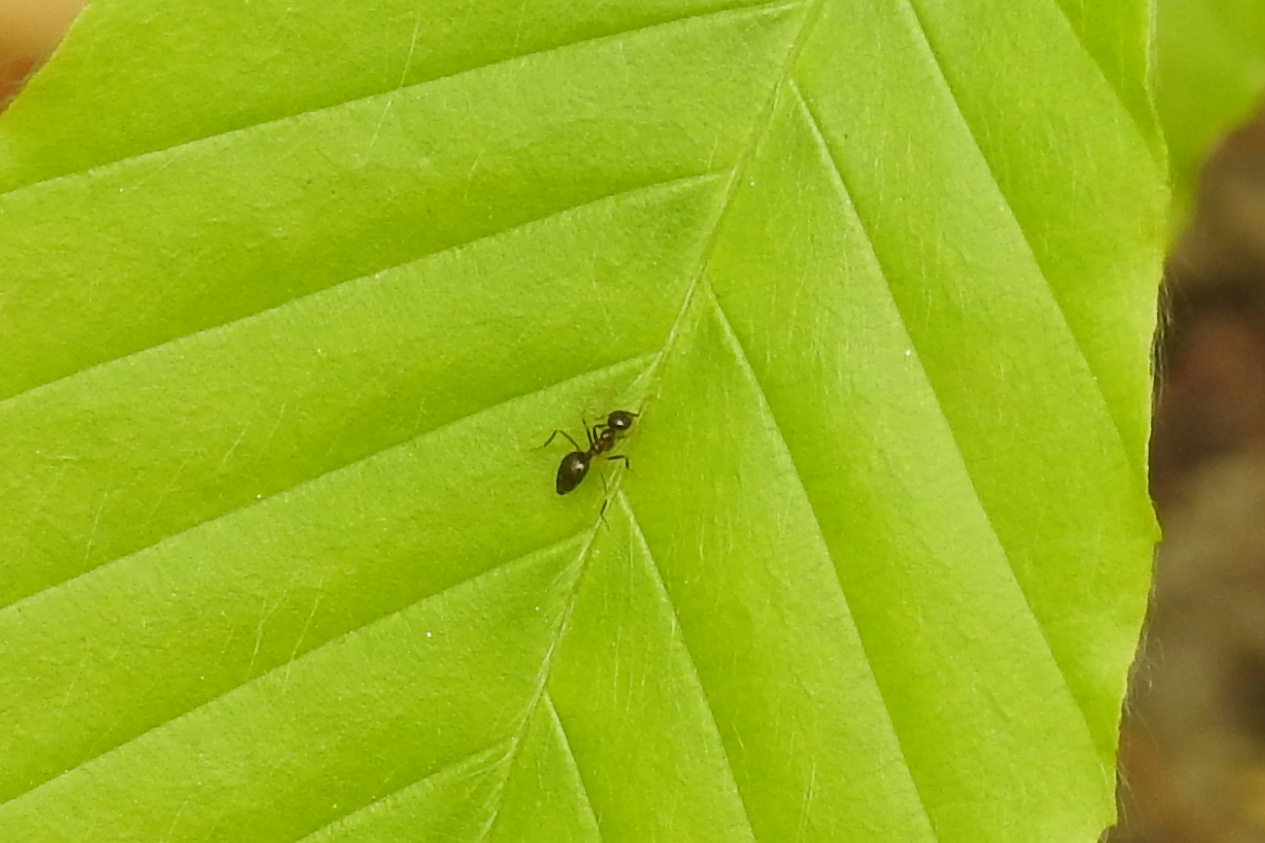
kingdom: Animalia
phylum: Arthropoda
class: Insecta
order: Hymenoptera
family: Formicidae
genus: Prenolepis
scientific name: Prenolepis imparis
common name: Small honey ant
